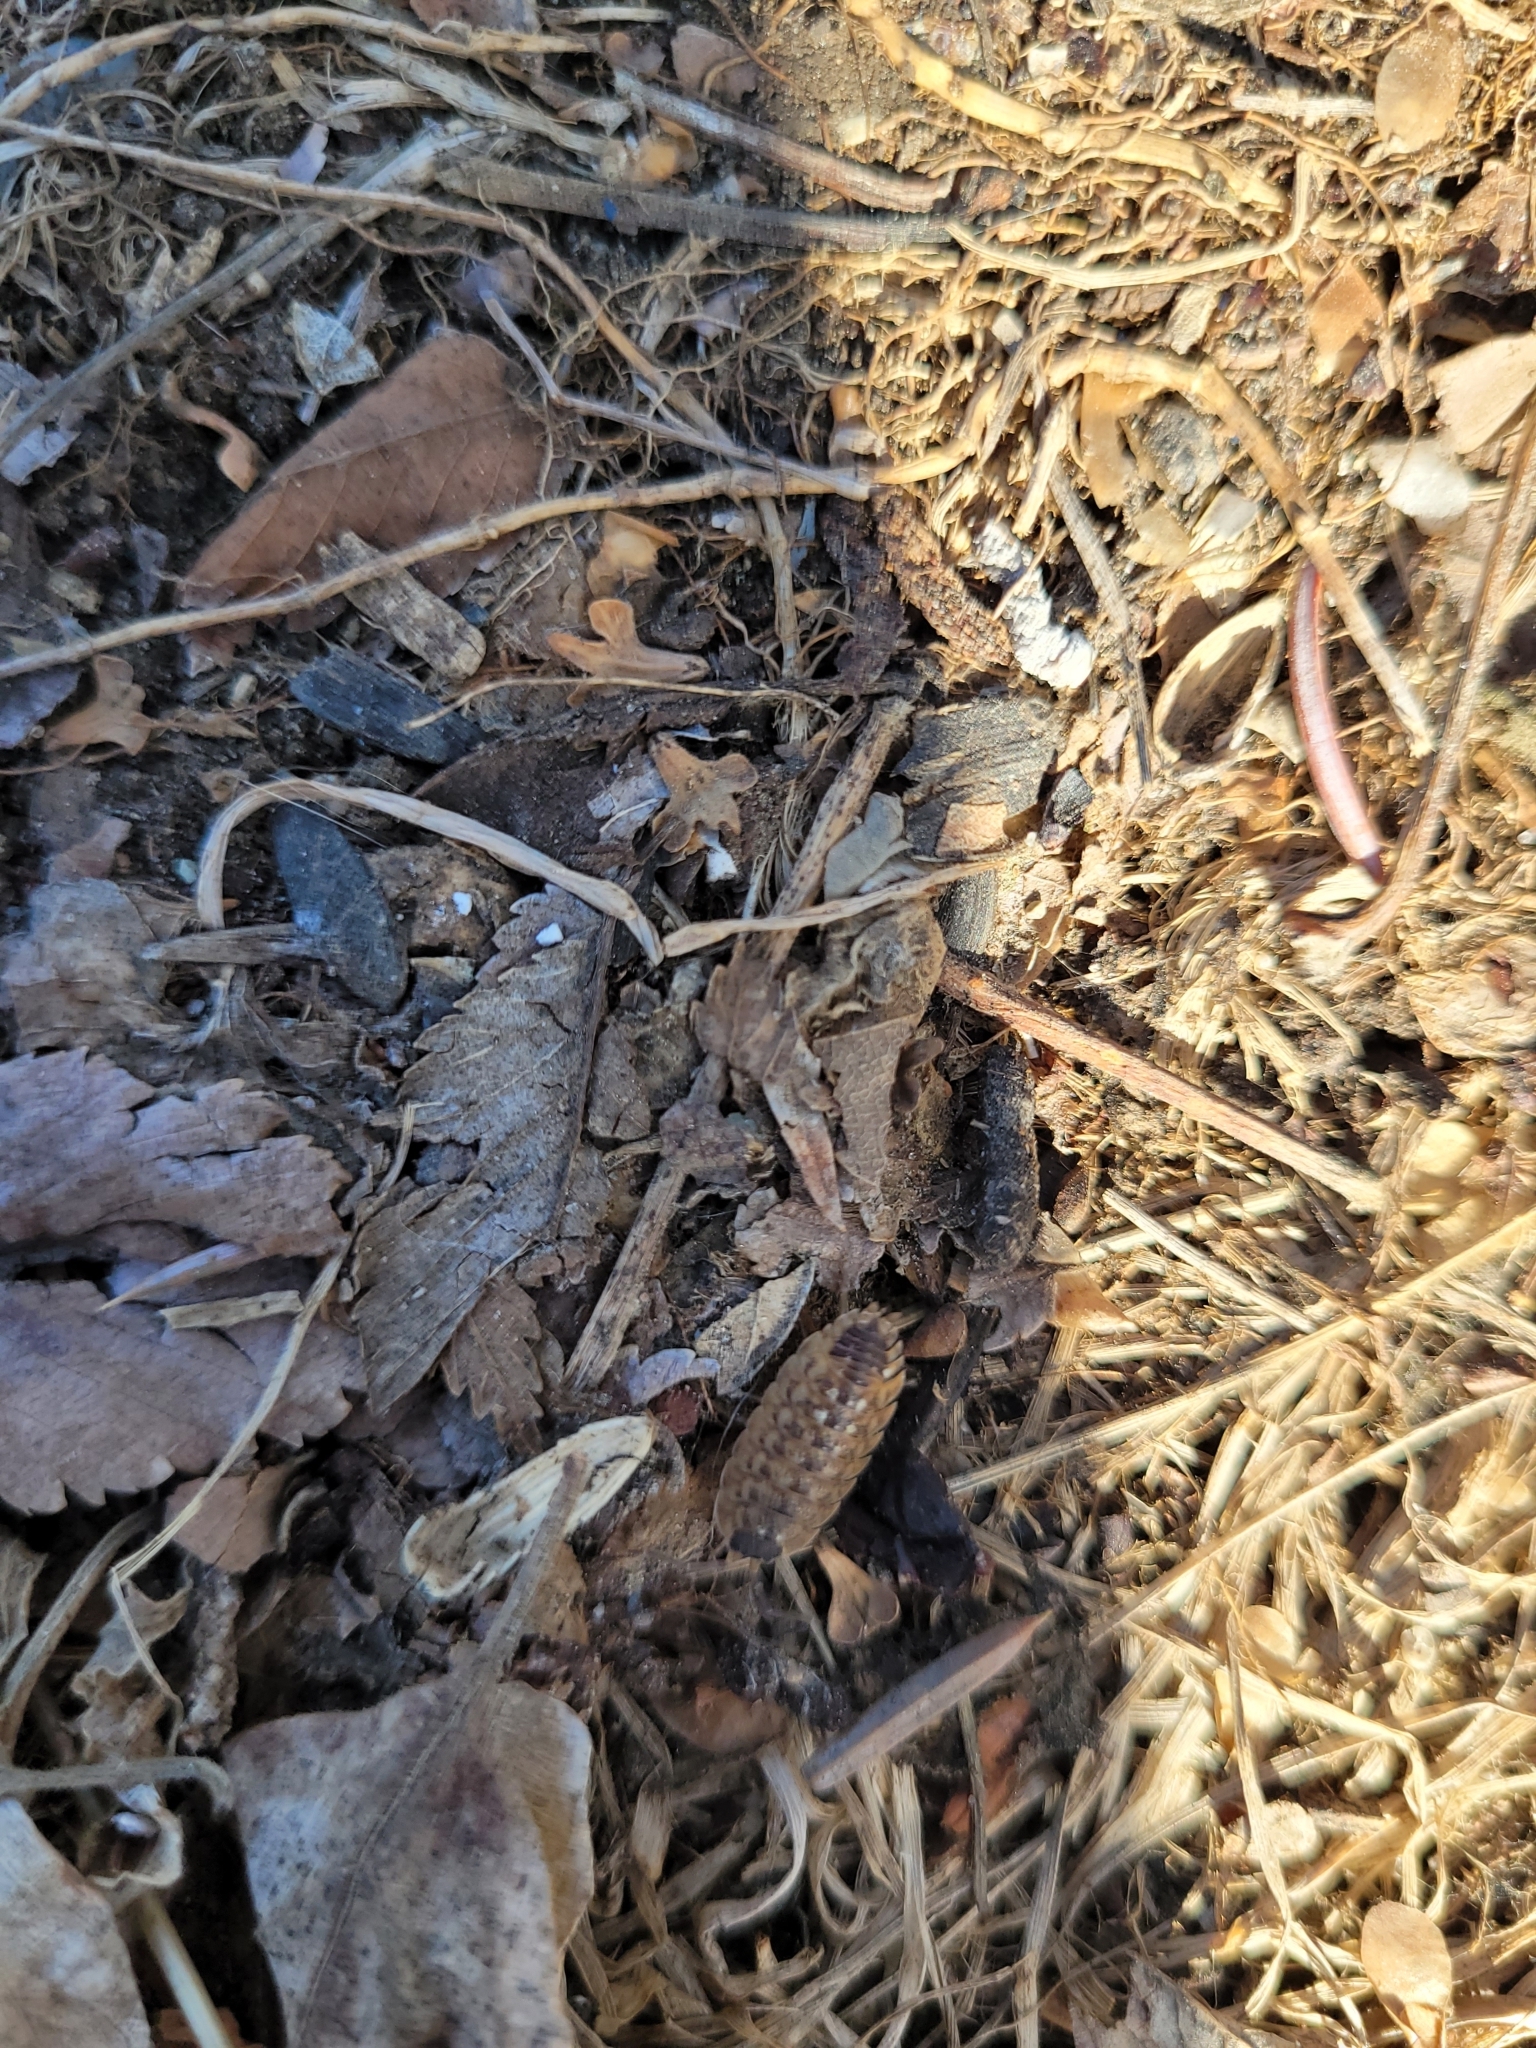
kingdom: Animalia
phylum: Arthropoda
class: Malacostraca
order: Isopoda
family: Porcellionidae
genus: Porcellio
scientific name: Porcellio spinicornis
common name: Painted woodlouse
